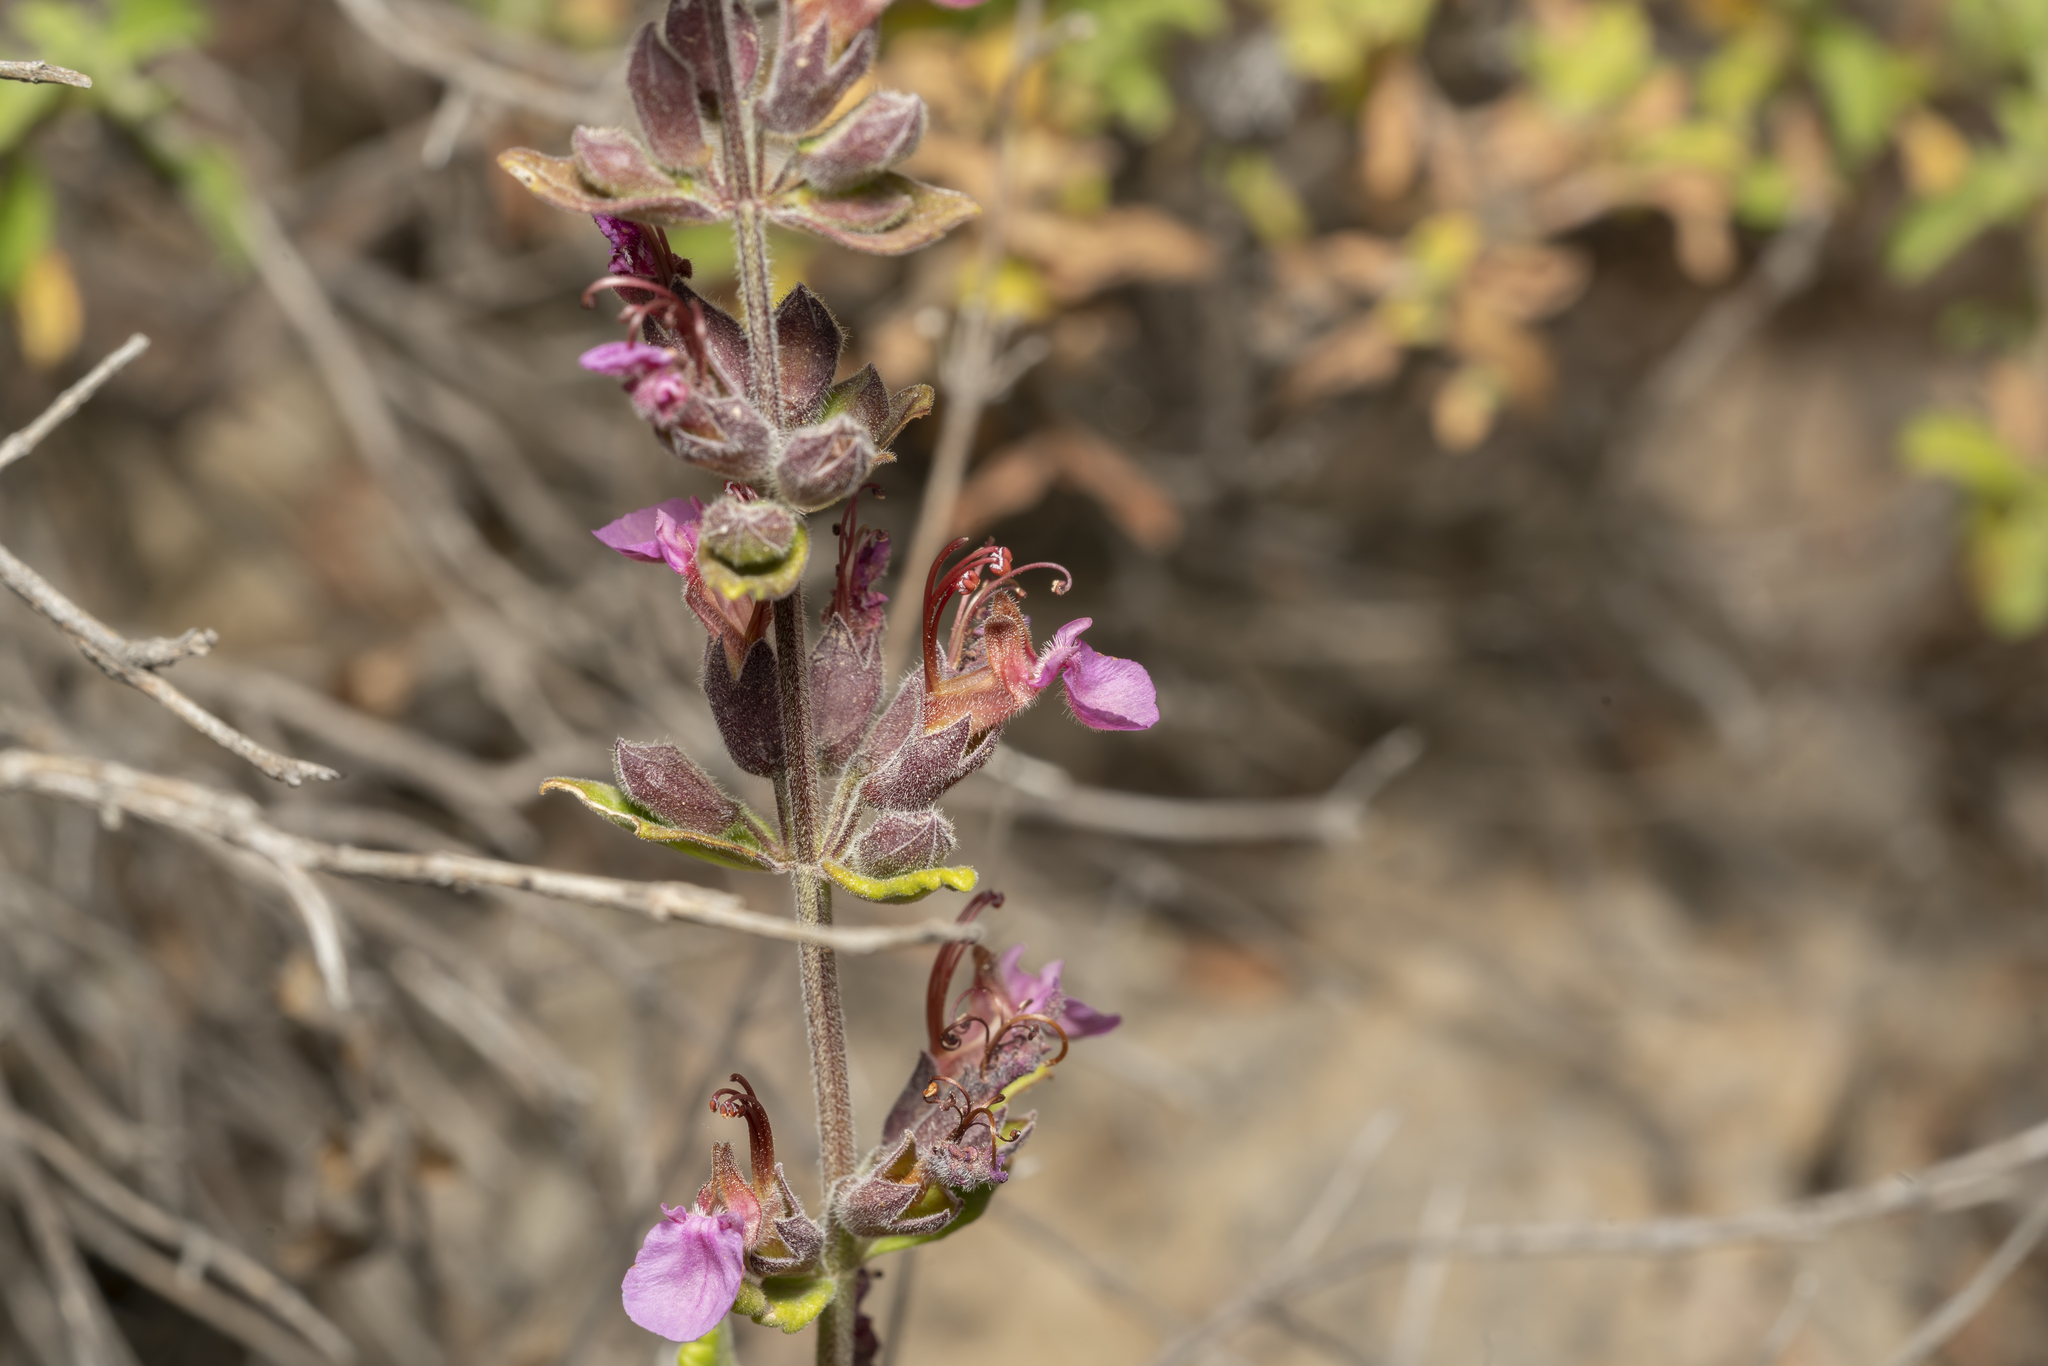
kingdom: Plantae
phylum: Tracheophyta
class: Magnoliopsida
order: Lamiales
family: Lamiaceae
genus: Teucrium
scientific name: Teucrium divaricatum
